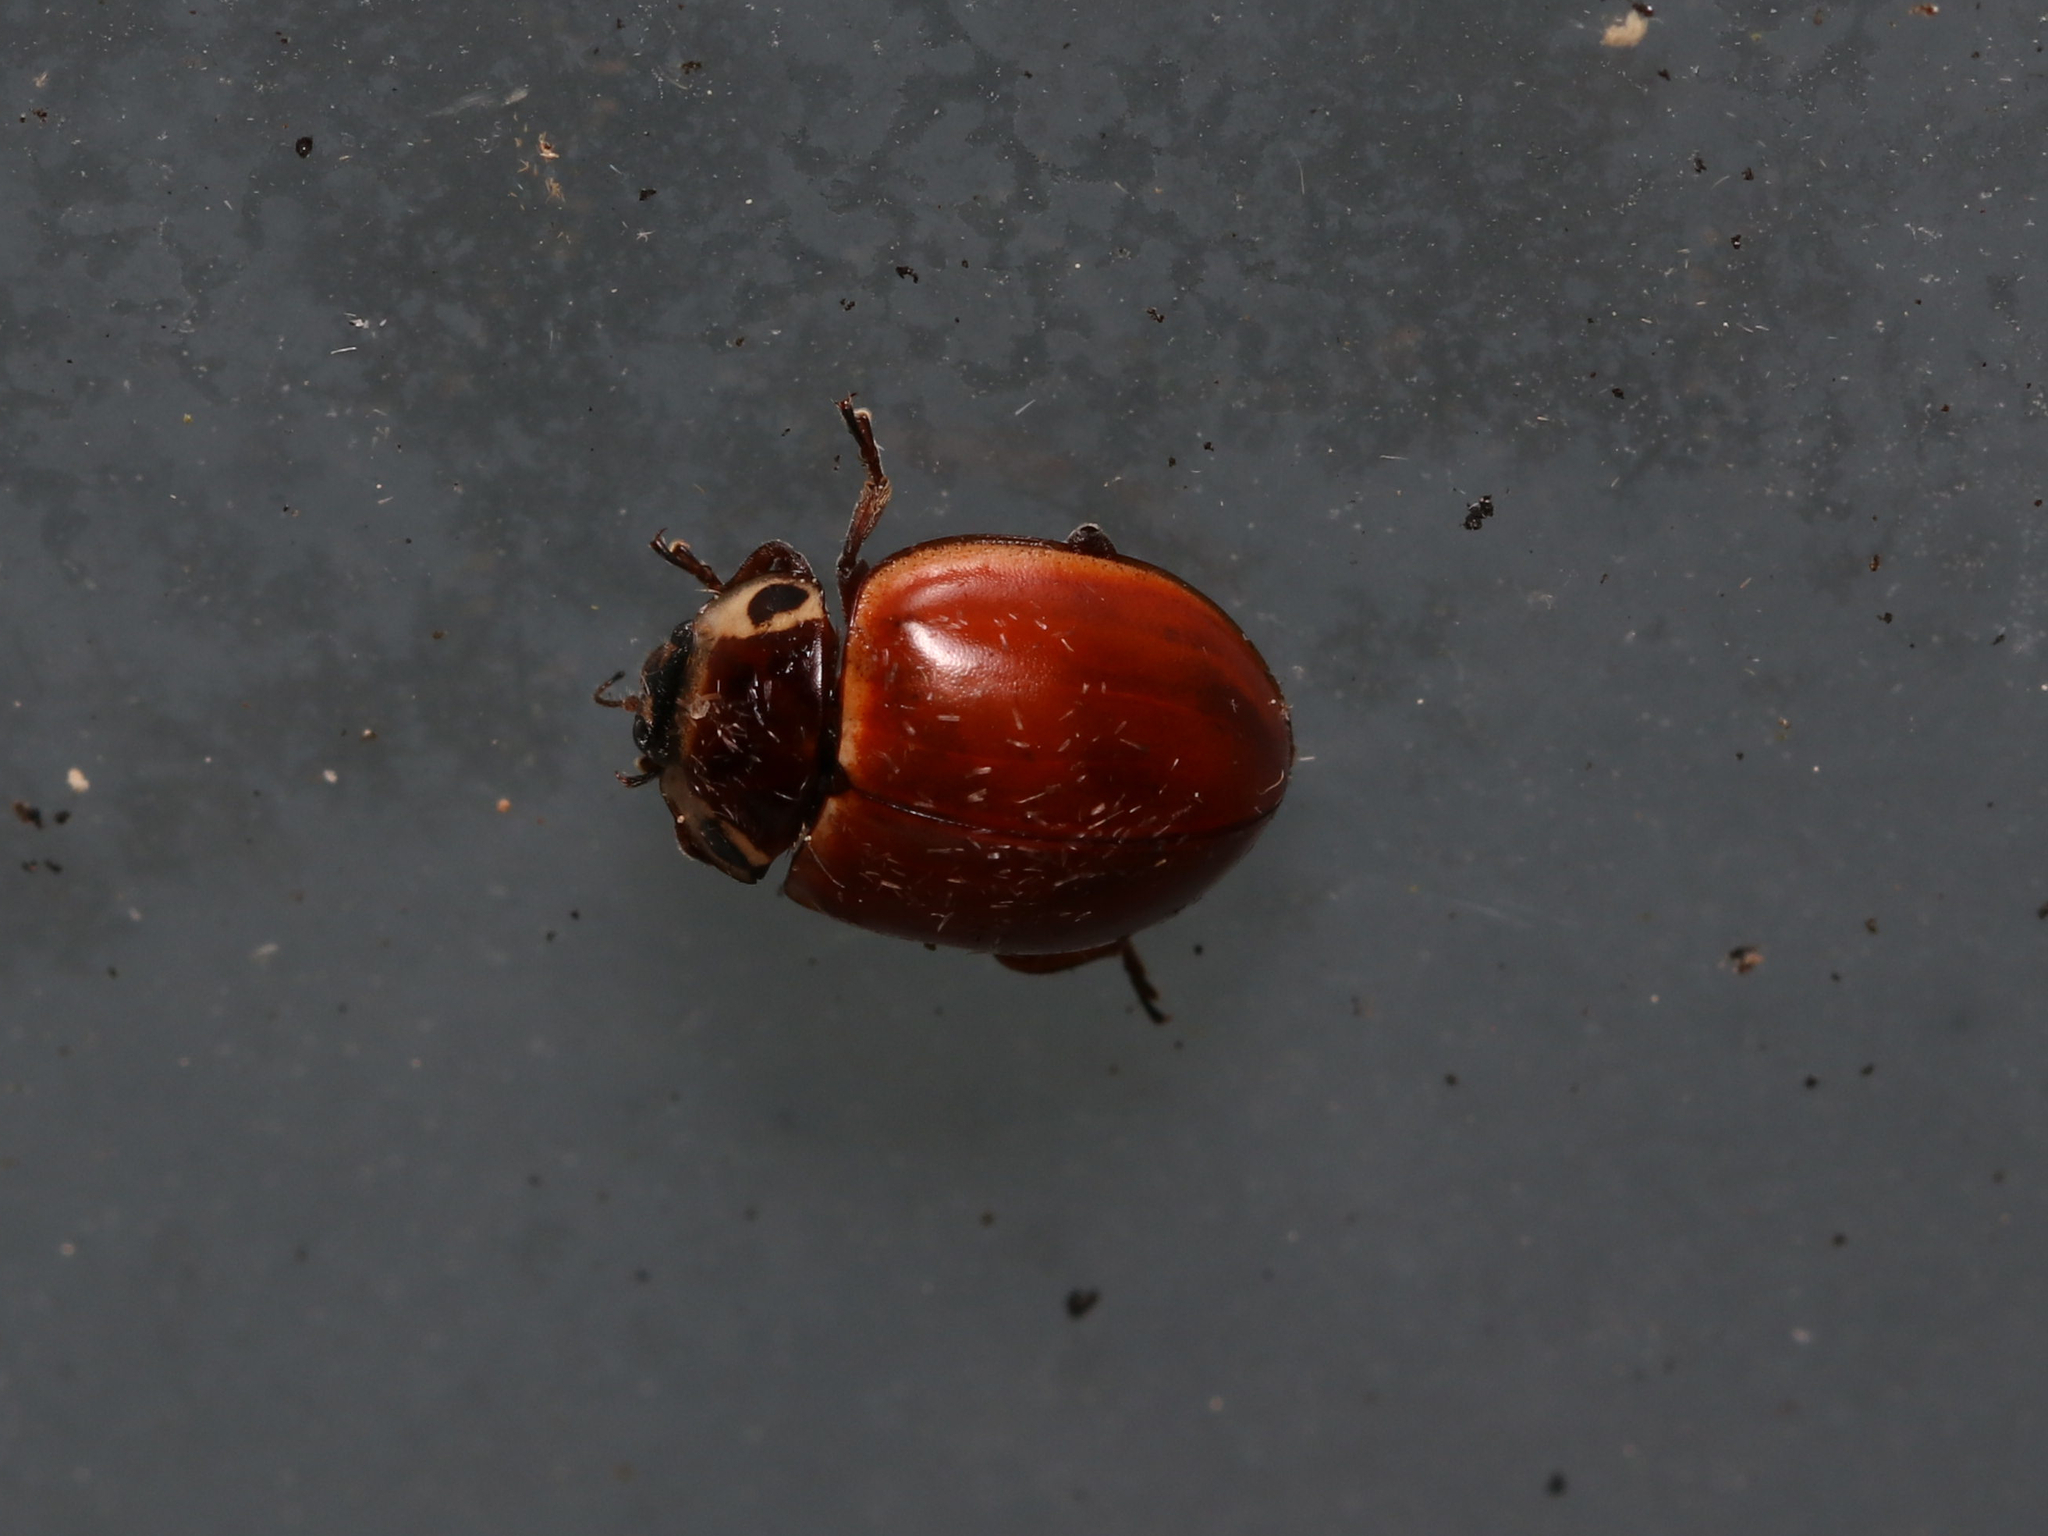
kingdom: Animalia
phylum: Arthropoda
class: Insecta
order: Coleoptera
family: Coccinellidae
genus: Myzia
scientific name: Myzia pullata
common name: Streaked lady beetle
